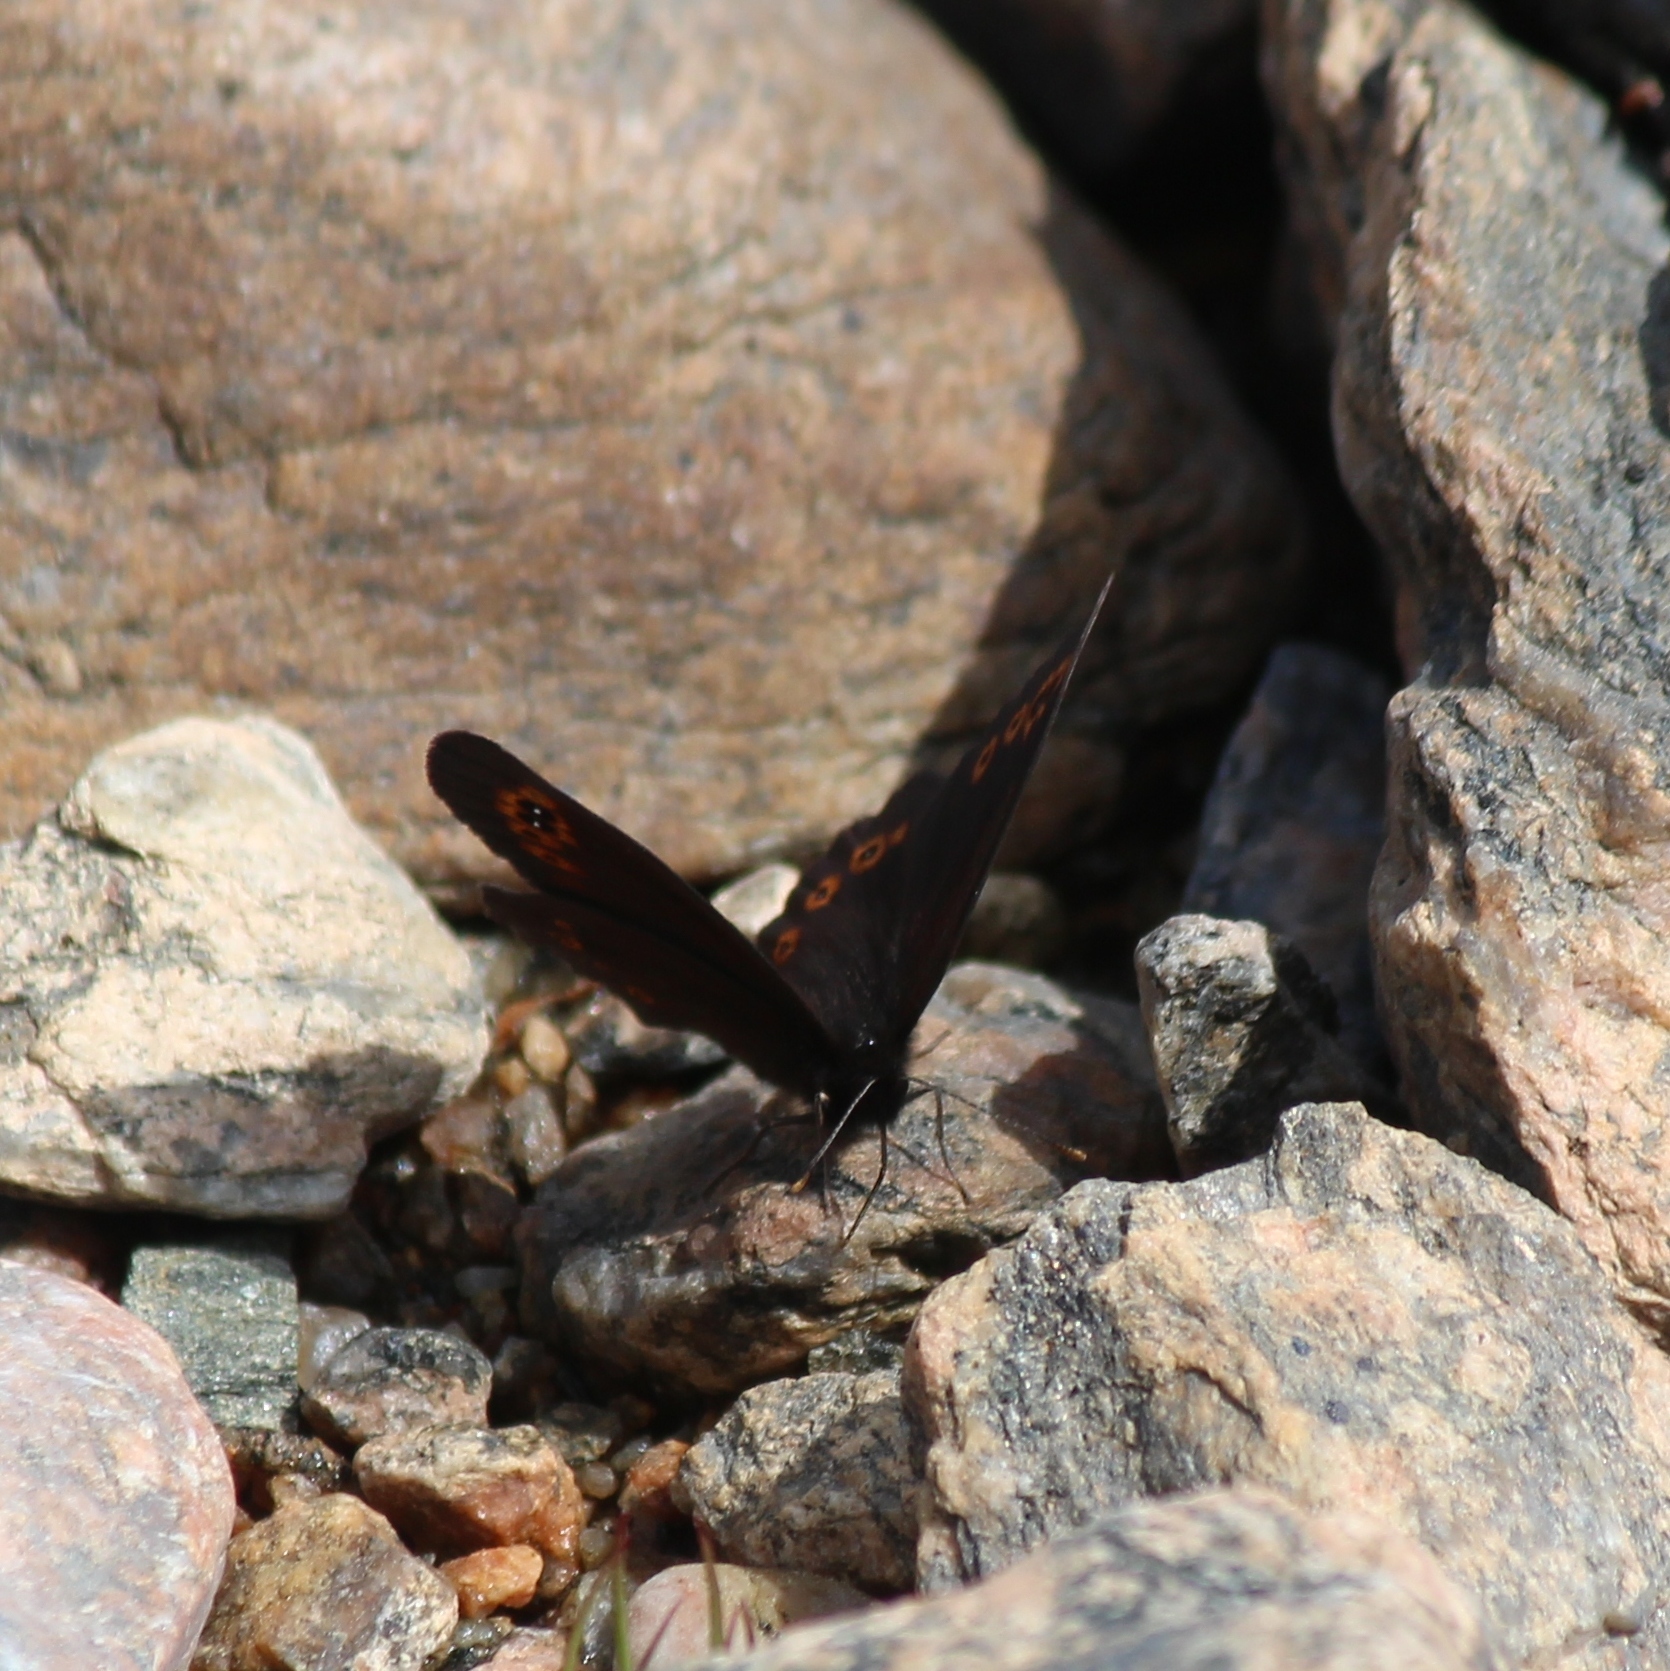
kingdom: Animalia
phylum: Arthropoda
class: Insecta
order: Lepidoptera
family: Nymphalidae
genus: Erebia
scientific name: Erebia medusa
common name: Woodland ringlet
